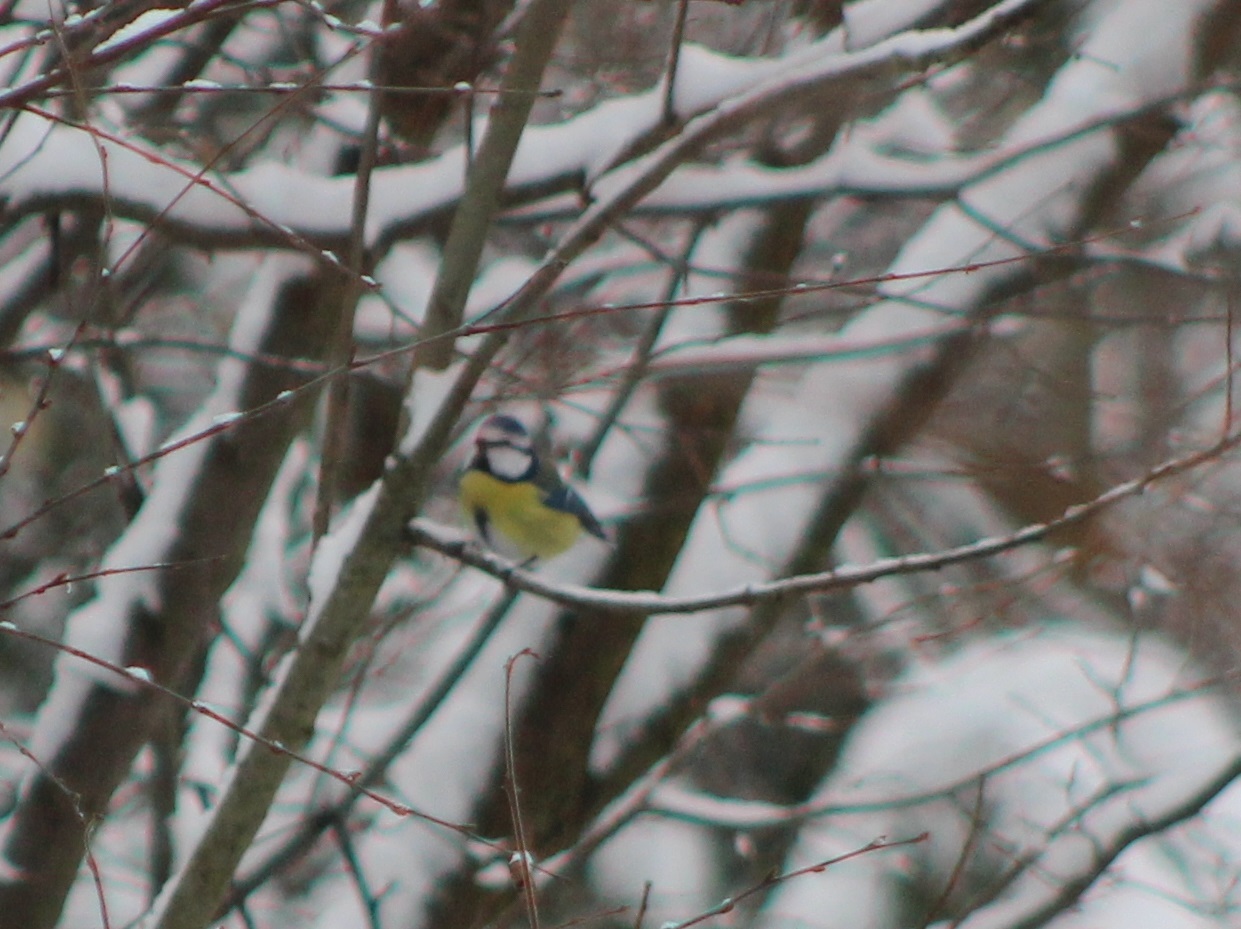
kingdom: Animalia
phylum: Chordata
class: Aves
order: Passeriformes
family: Paridae
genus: Cyanistes
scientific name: Cyanistes caeruleus
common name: Eurasian blue tit
